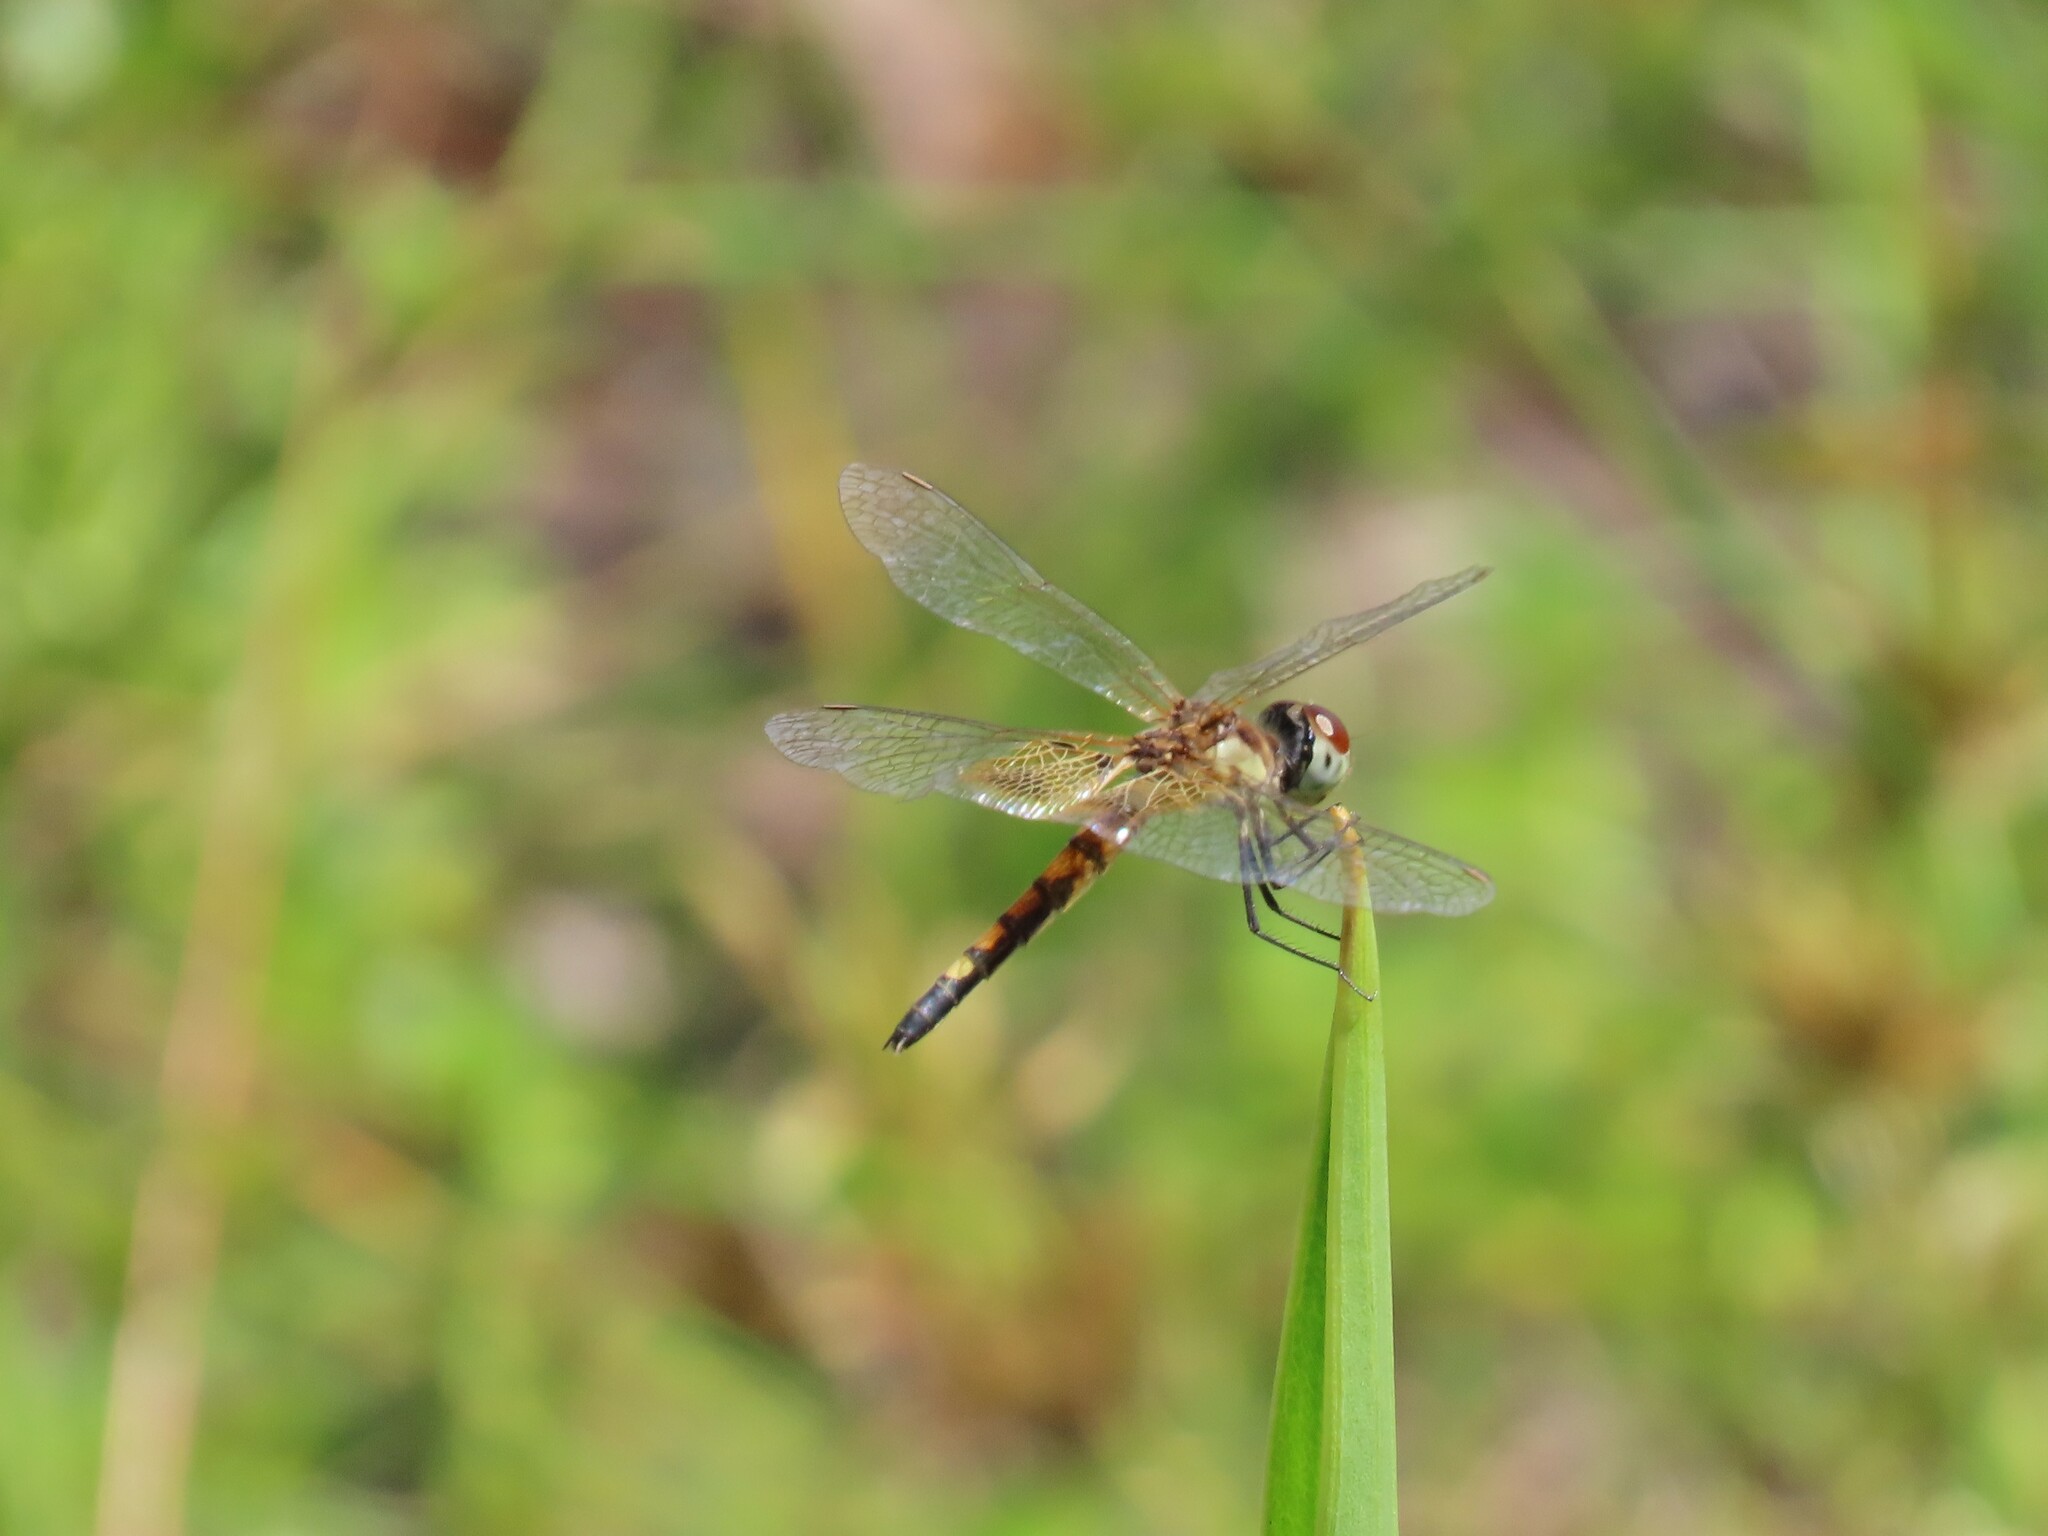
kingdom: Animalia
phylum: Arthropoda
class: Insecta
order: Odonata
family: Libellulidae
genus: Celithemis
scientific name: Celithemis amanda
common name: Amanda's pennant
